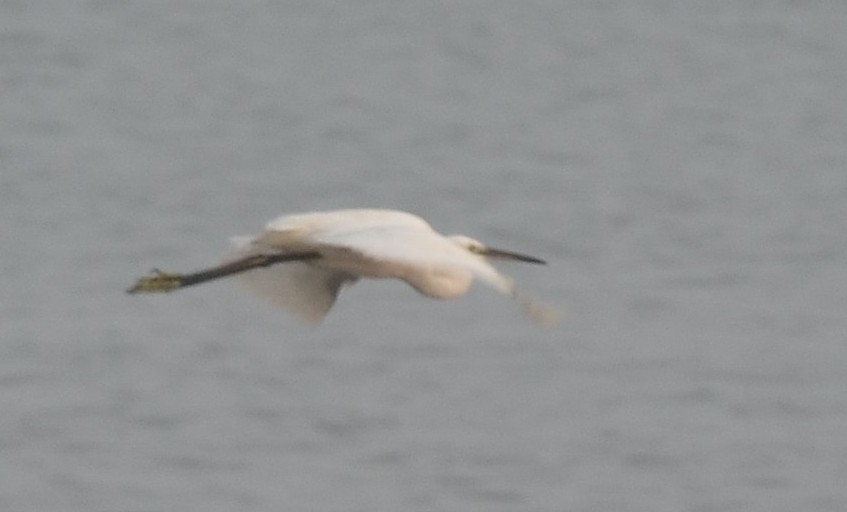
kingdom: Animalia
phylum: Chordata
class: Aves
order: Pelecaniformes
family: Ardeidae
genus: Egretta
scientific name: Egretta garzetta
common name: Little egret
